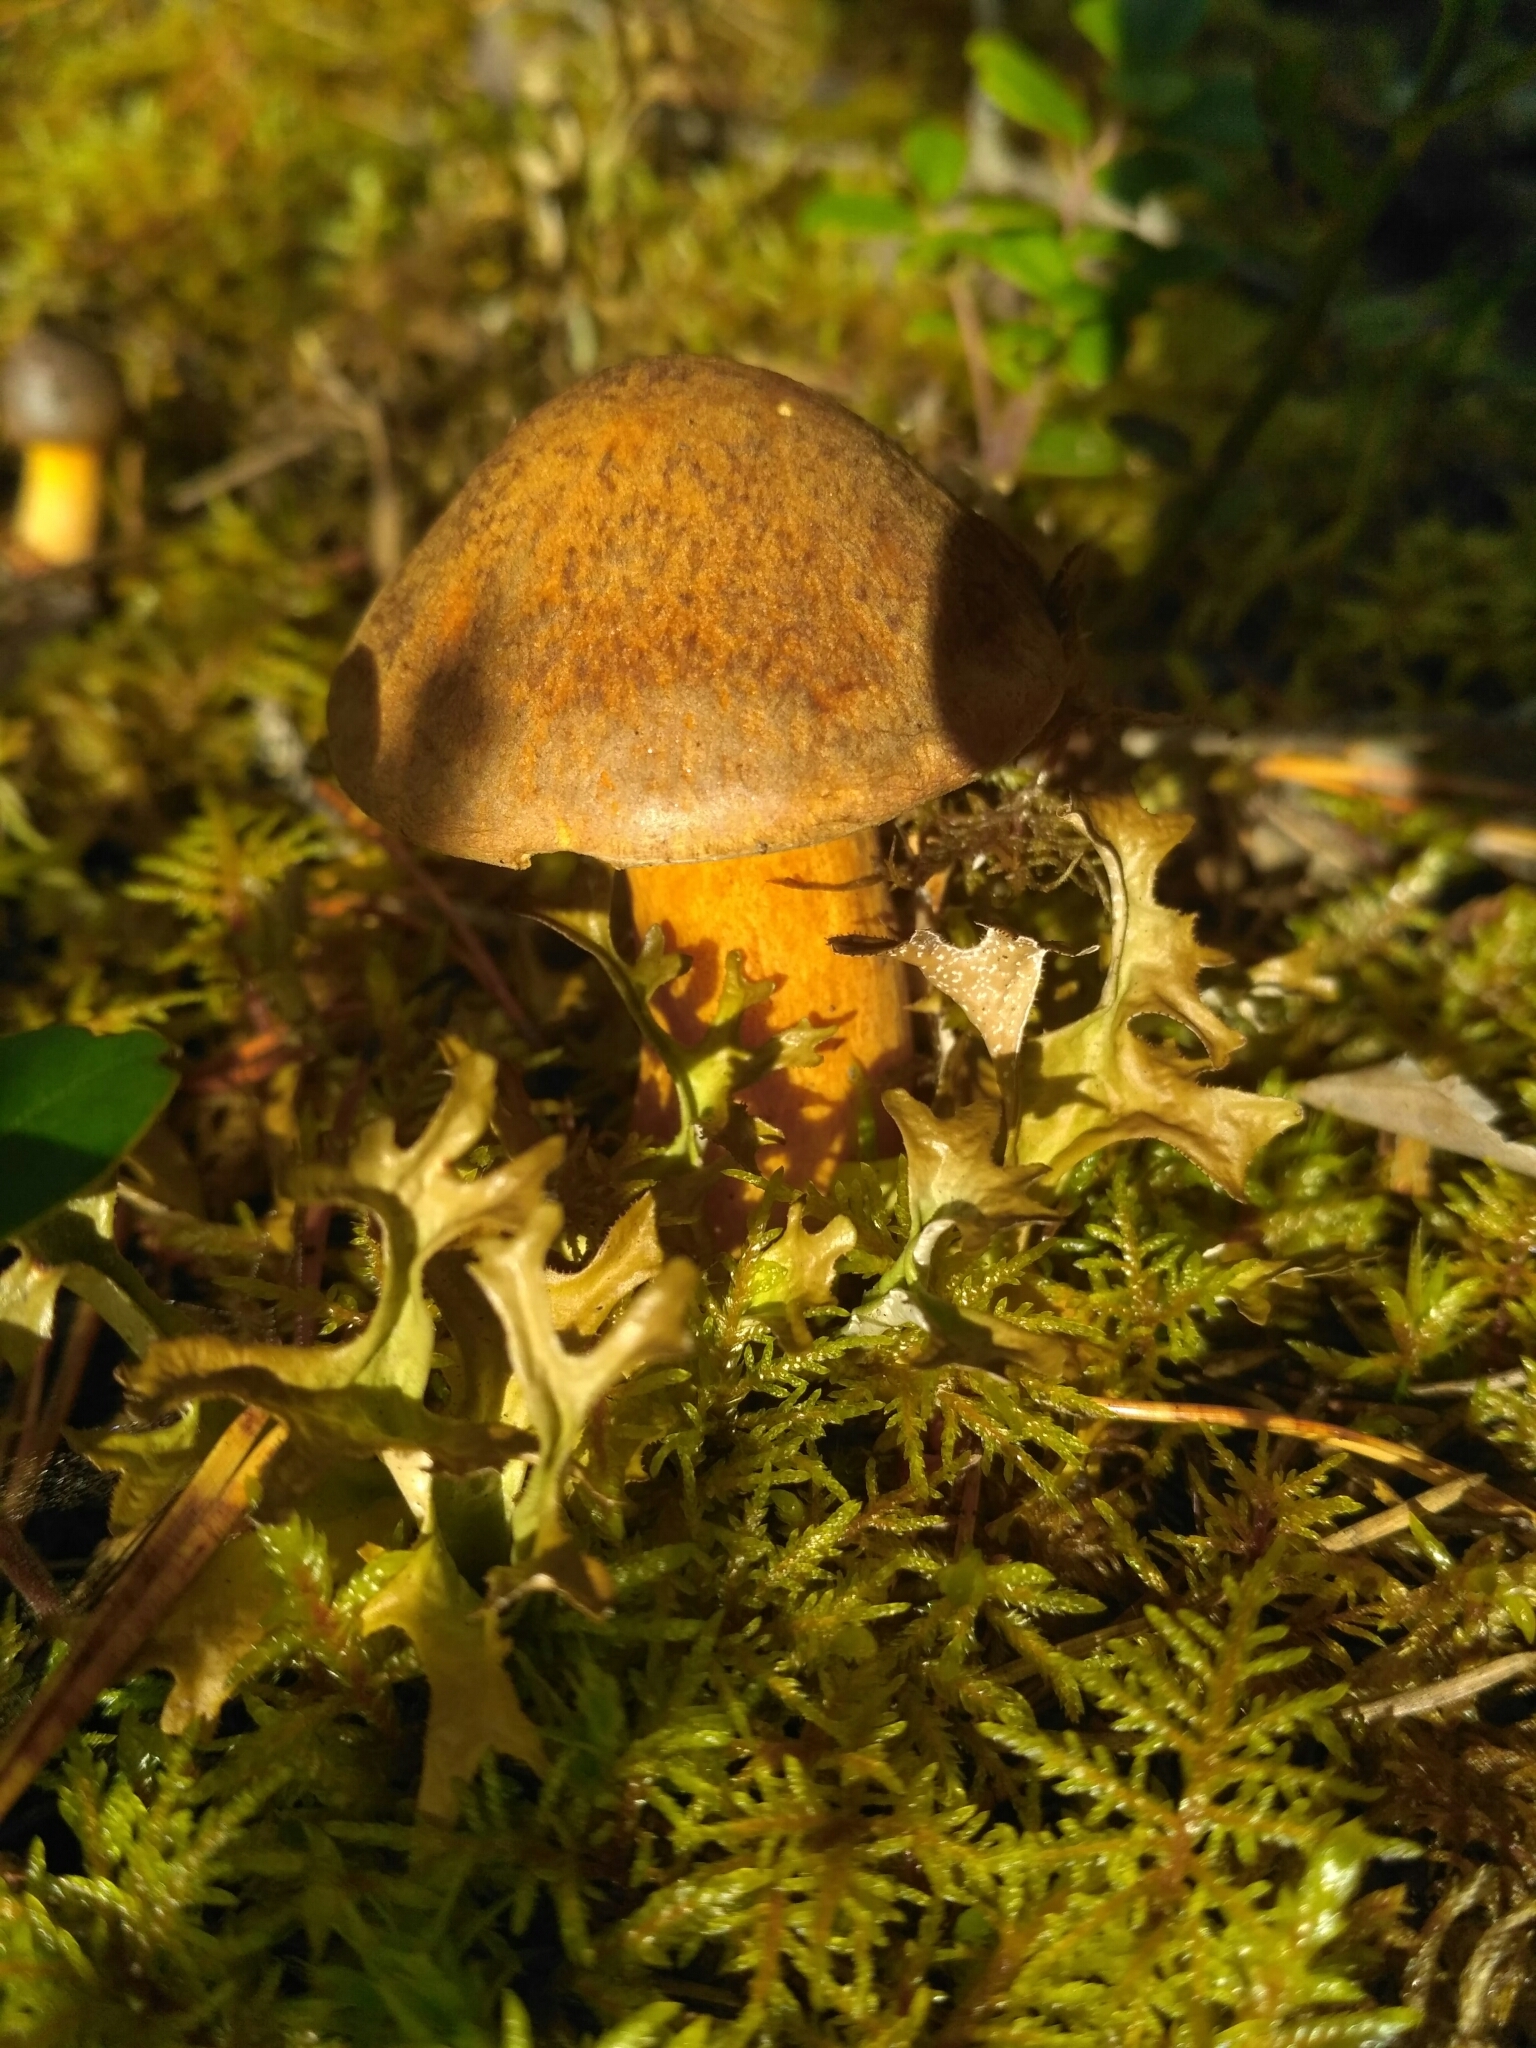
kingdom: Fungi
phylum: Basidiomycota
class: Agaricomycetes
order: Boletales
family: Suillaceae
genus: Suillus
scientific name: Suillus variegatus
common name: Velvet bolete
